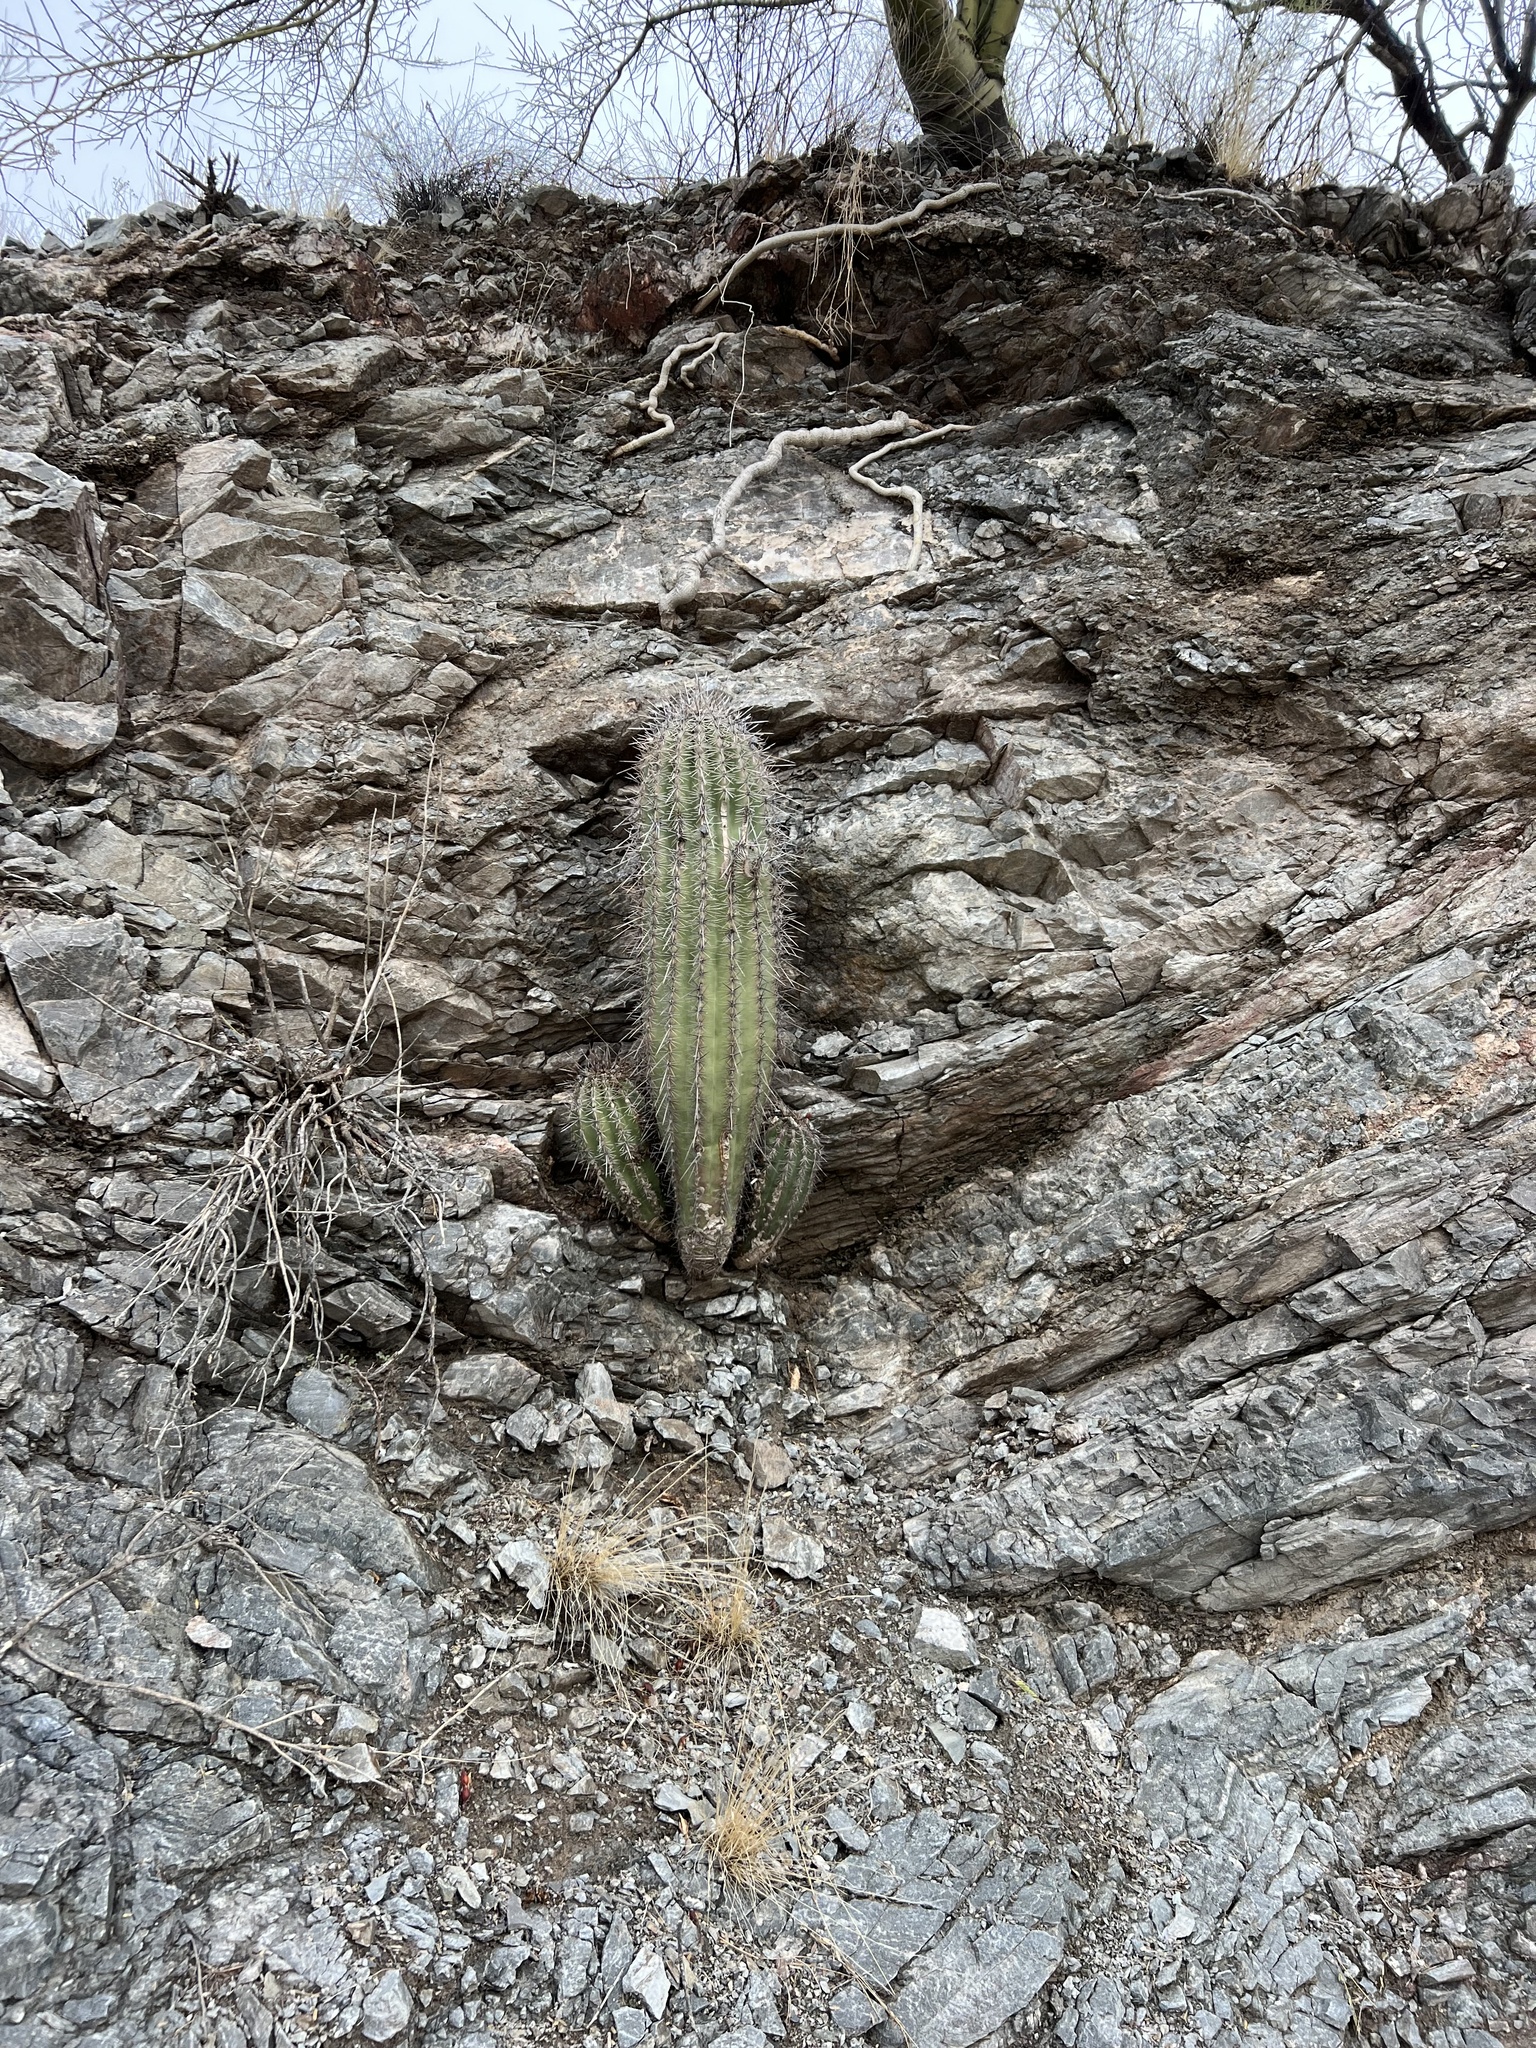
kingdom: Plantae
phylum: Tracheophyta
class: Magnoliopsida
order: Caryophyllales
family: Cactaceae
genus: Carnegiea
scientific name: Carnegiea gigantea
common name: Saguaro
